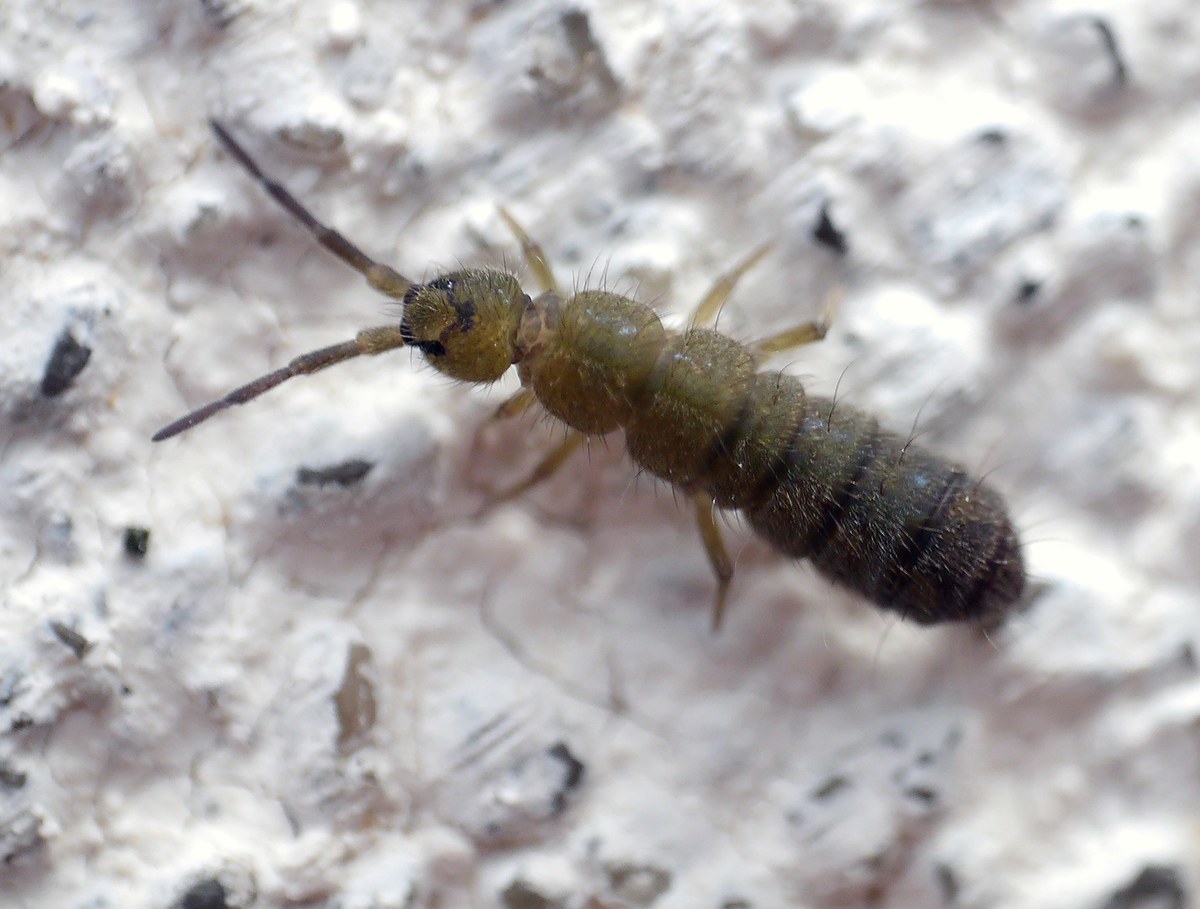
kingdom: Animalia
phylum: Arthropoda
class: Collembola
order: Entomobryomorpha
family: Isotomidae
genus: Isotoma
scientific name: Isotoma viridis
